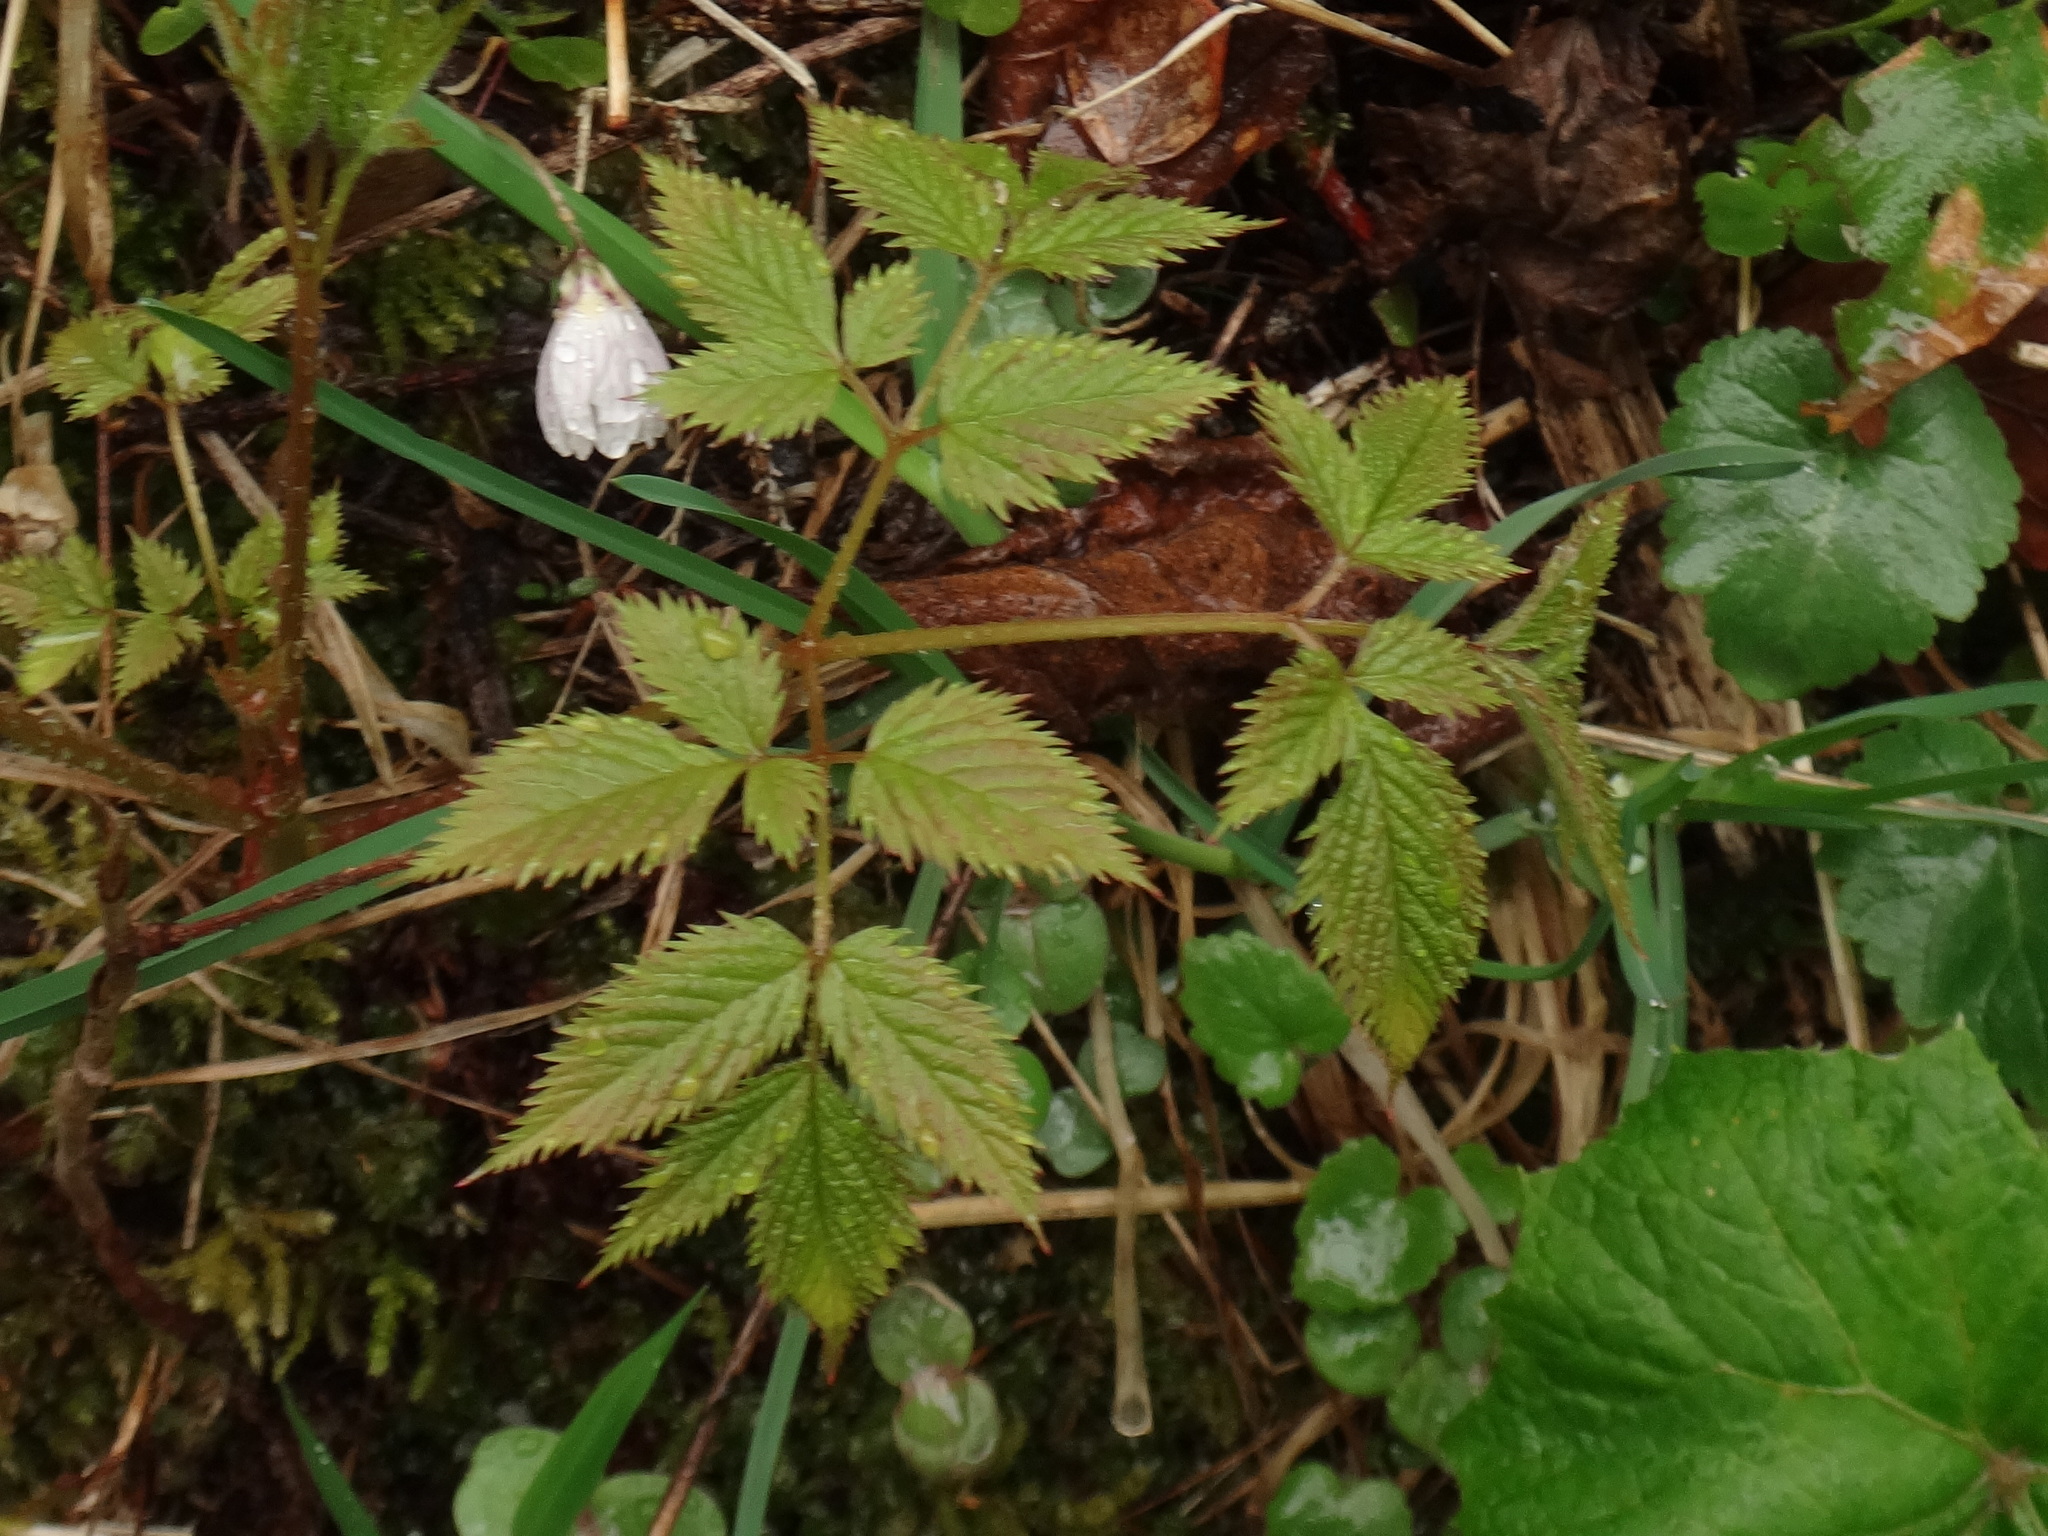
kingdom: Plantae
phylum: Tracheophyta
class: Magnoliopsida
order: Rosales
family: Rosaceae
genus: Aruncus
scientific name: Aruncus dioicus
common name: Buck's-beard
